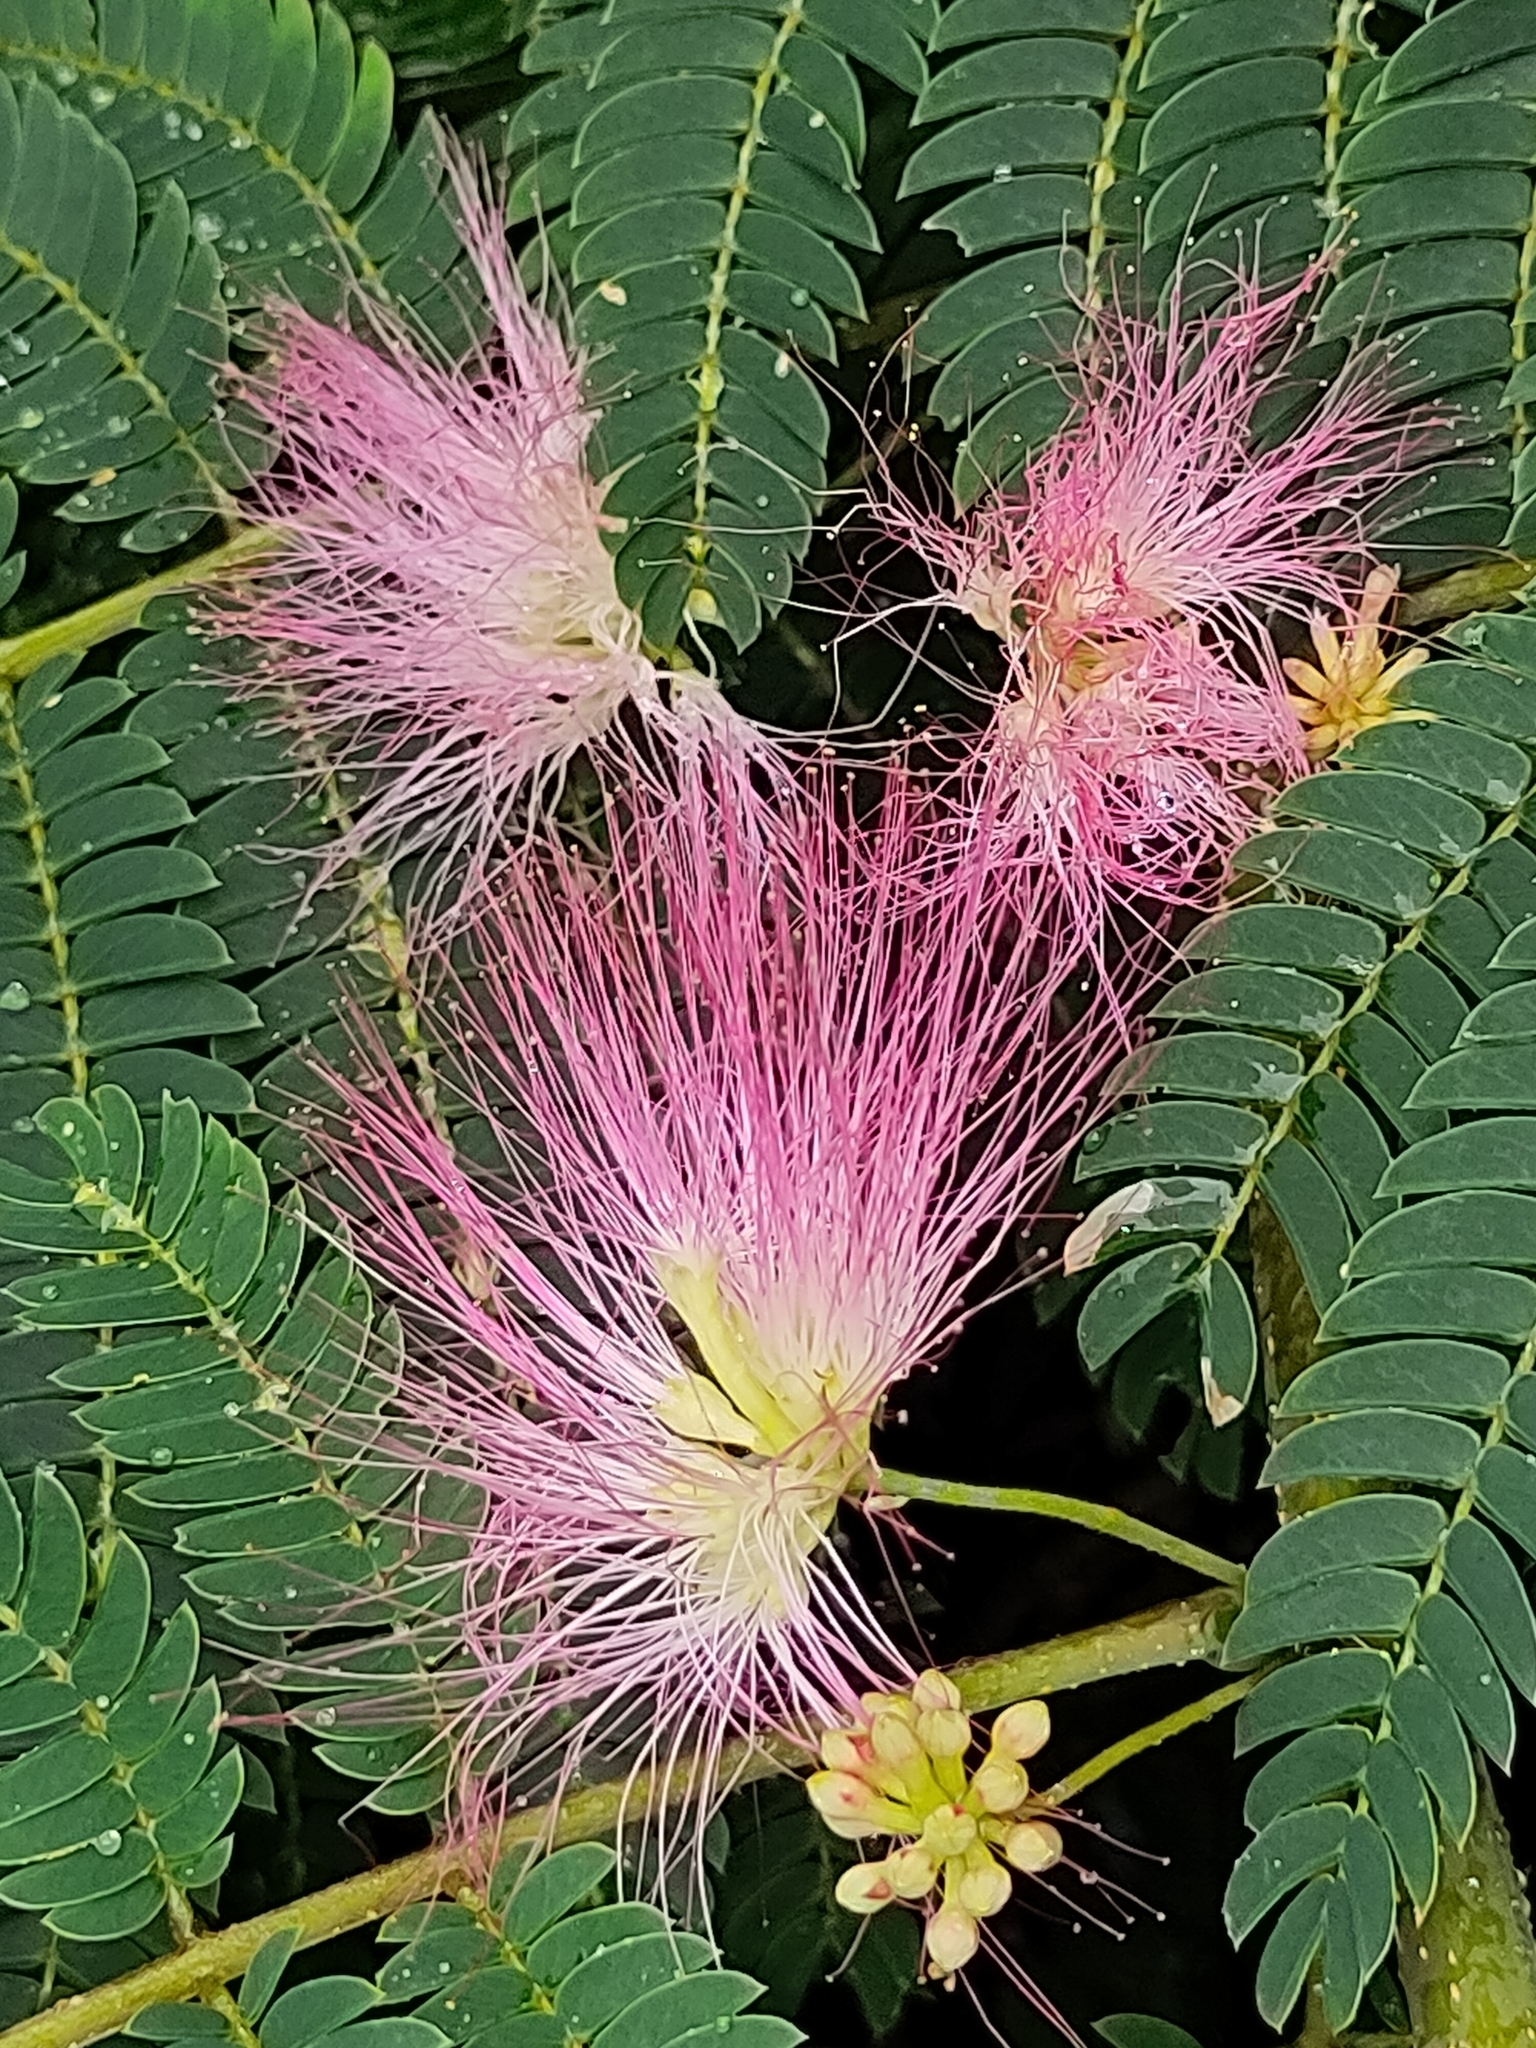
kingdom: Plantae
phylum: Tracheophyta
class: Magnoliopsida
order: Fabales
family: Fabaceae
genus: Albizia
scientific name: Albizia julibrissin
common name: Silktree
